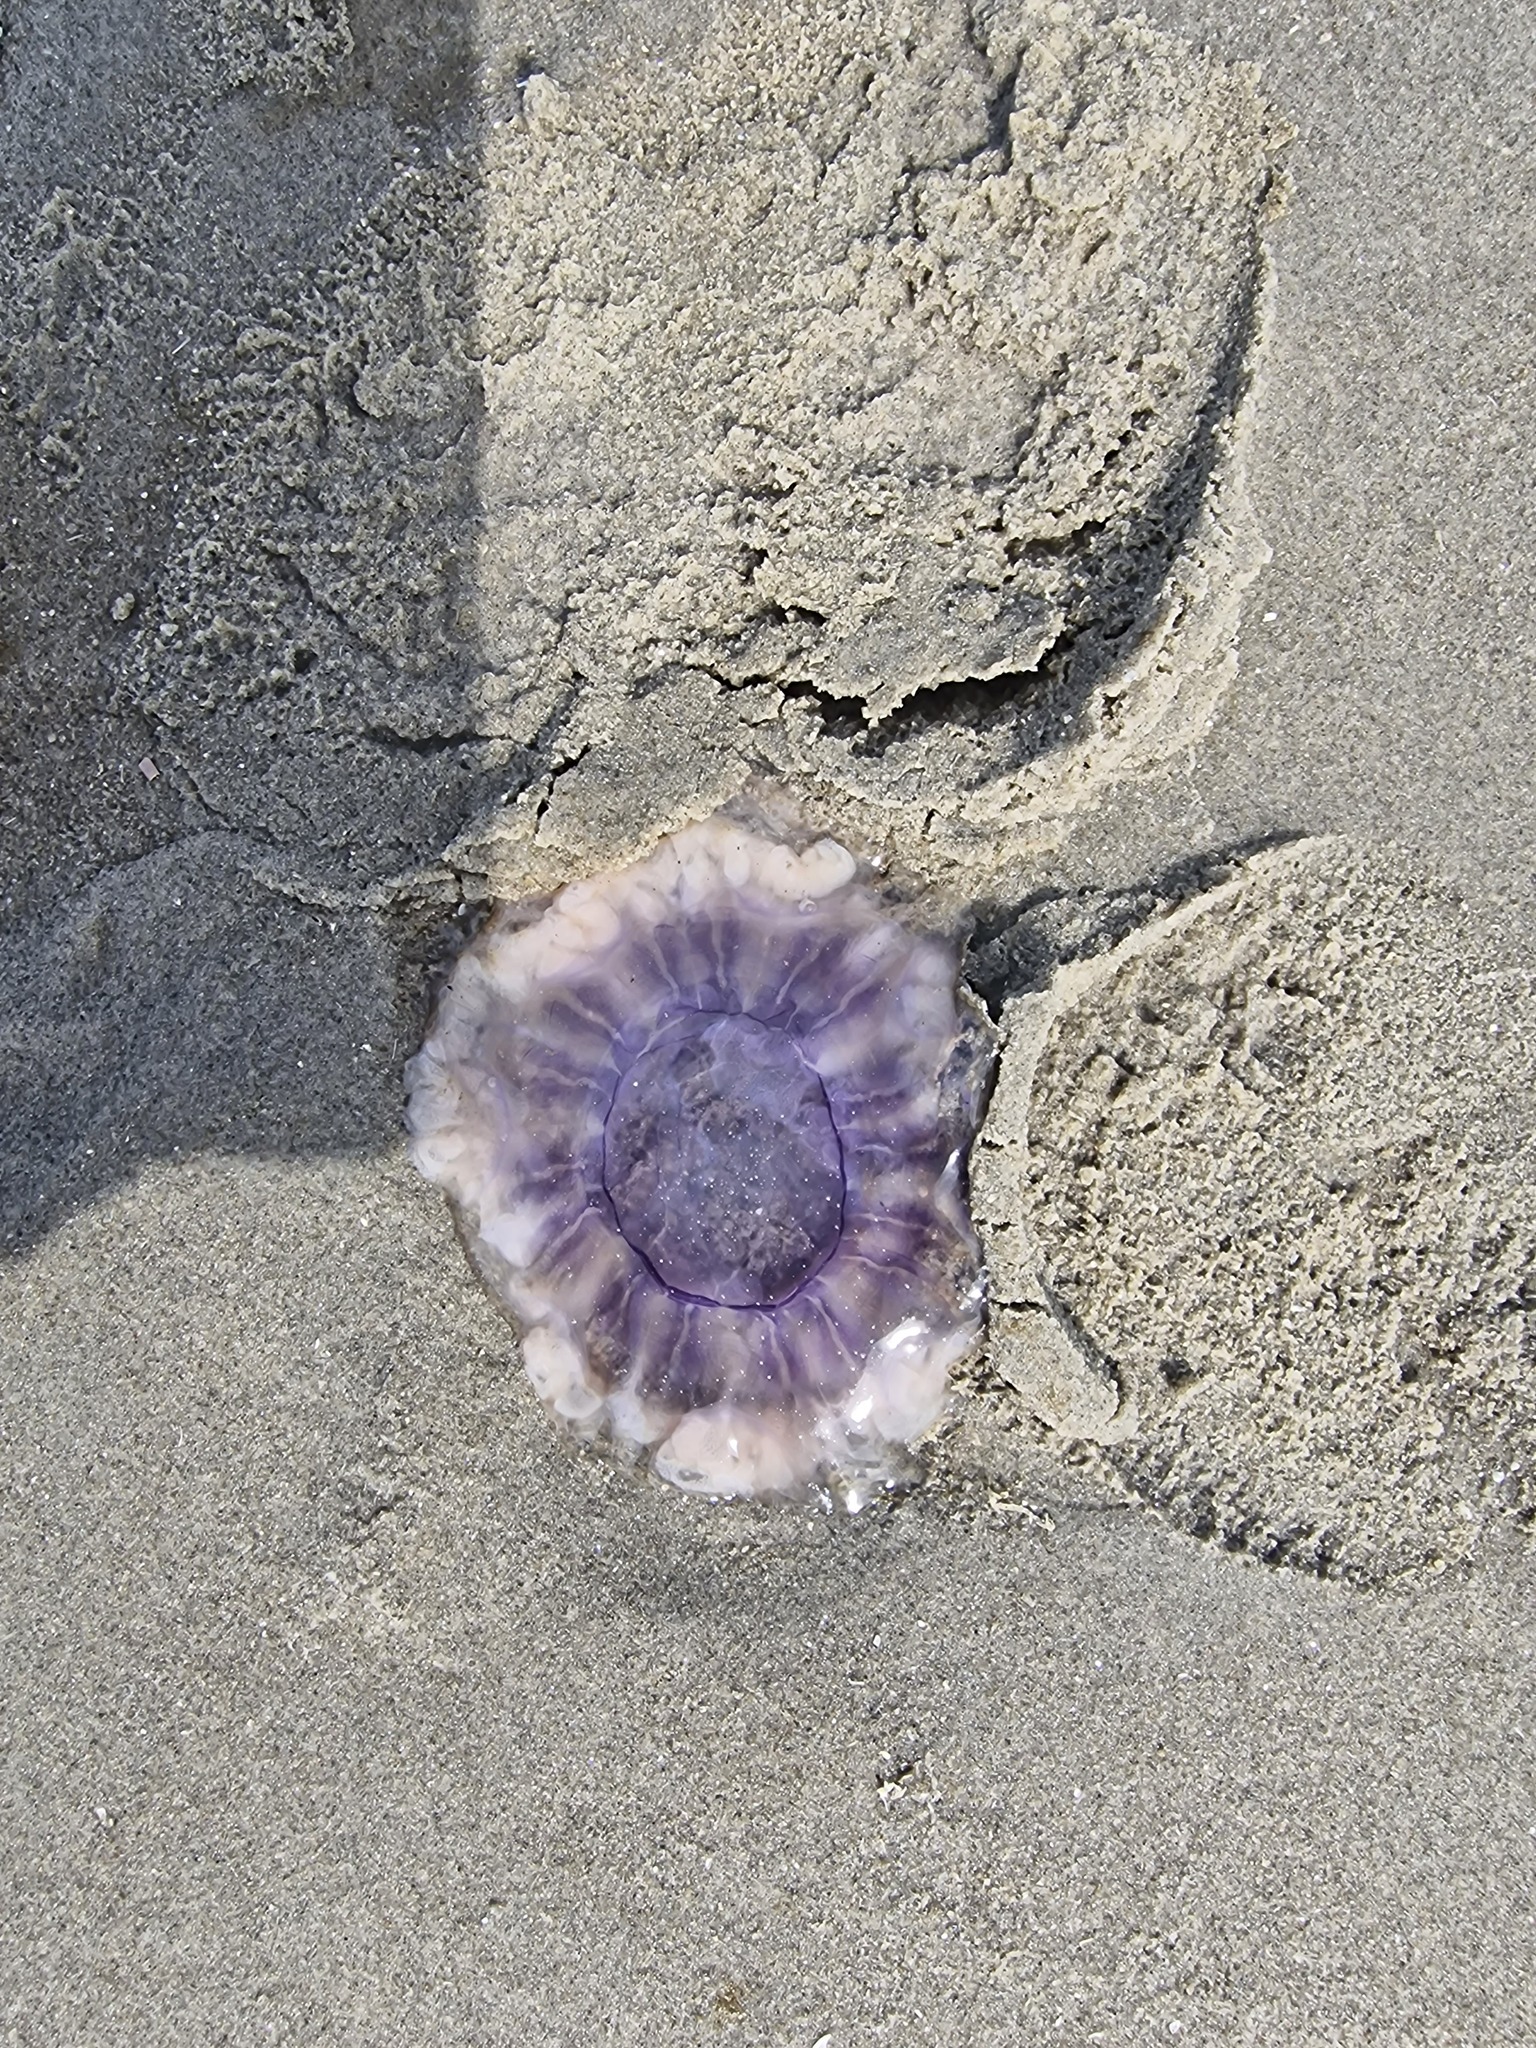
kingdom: Animalia
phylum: Cnidaria
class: Scyphozoa
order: Semaeostomeae
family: Cyaneidae
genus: Cyanea
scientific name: Cyanea lamarckii
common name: Blue jellyfish
